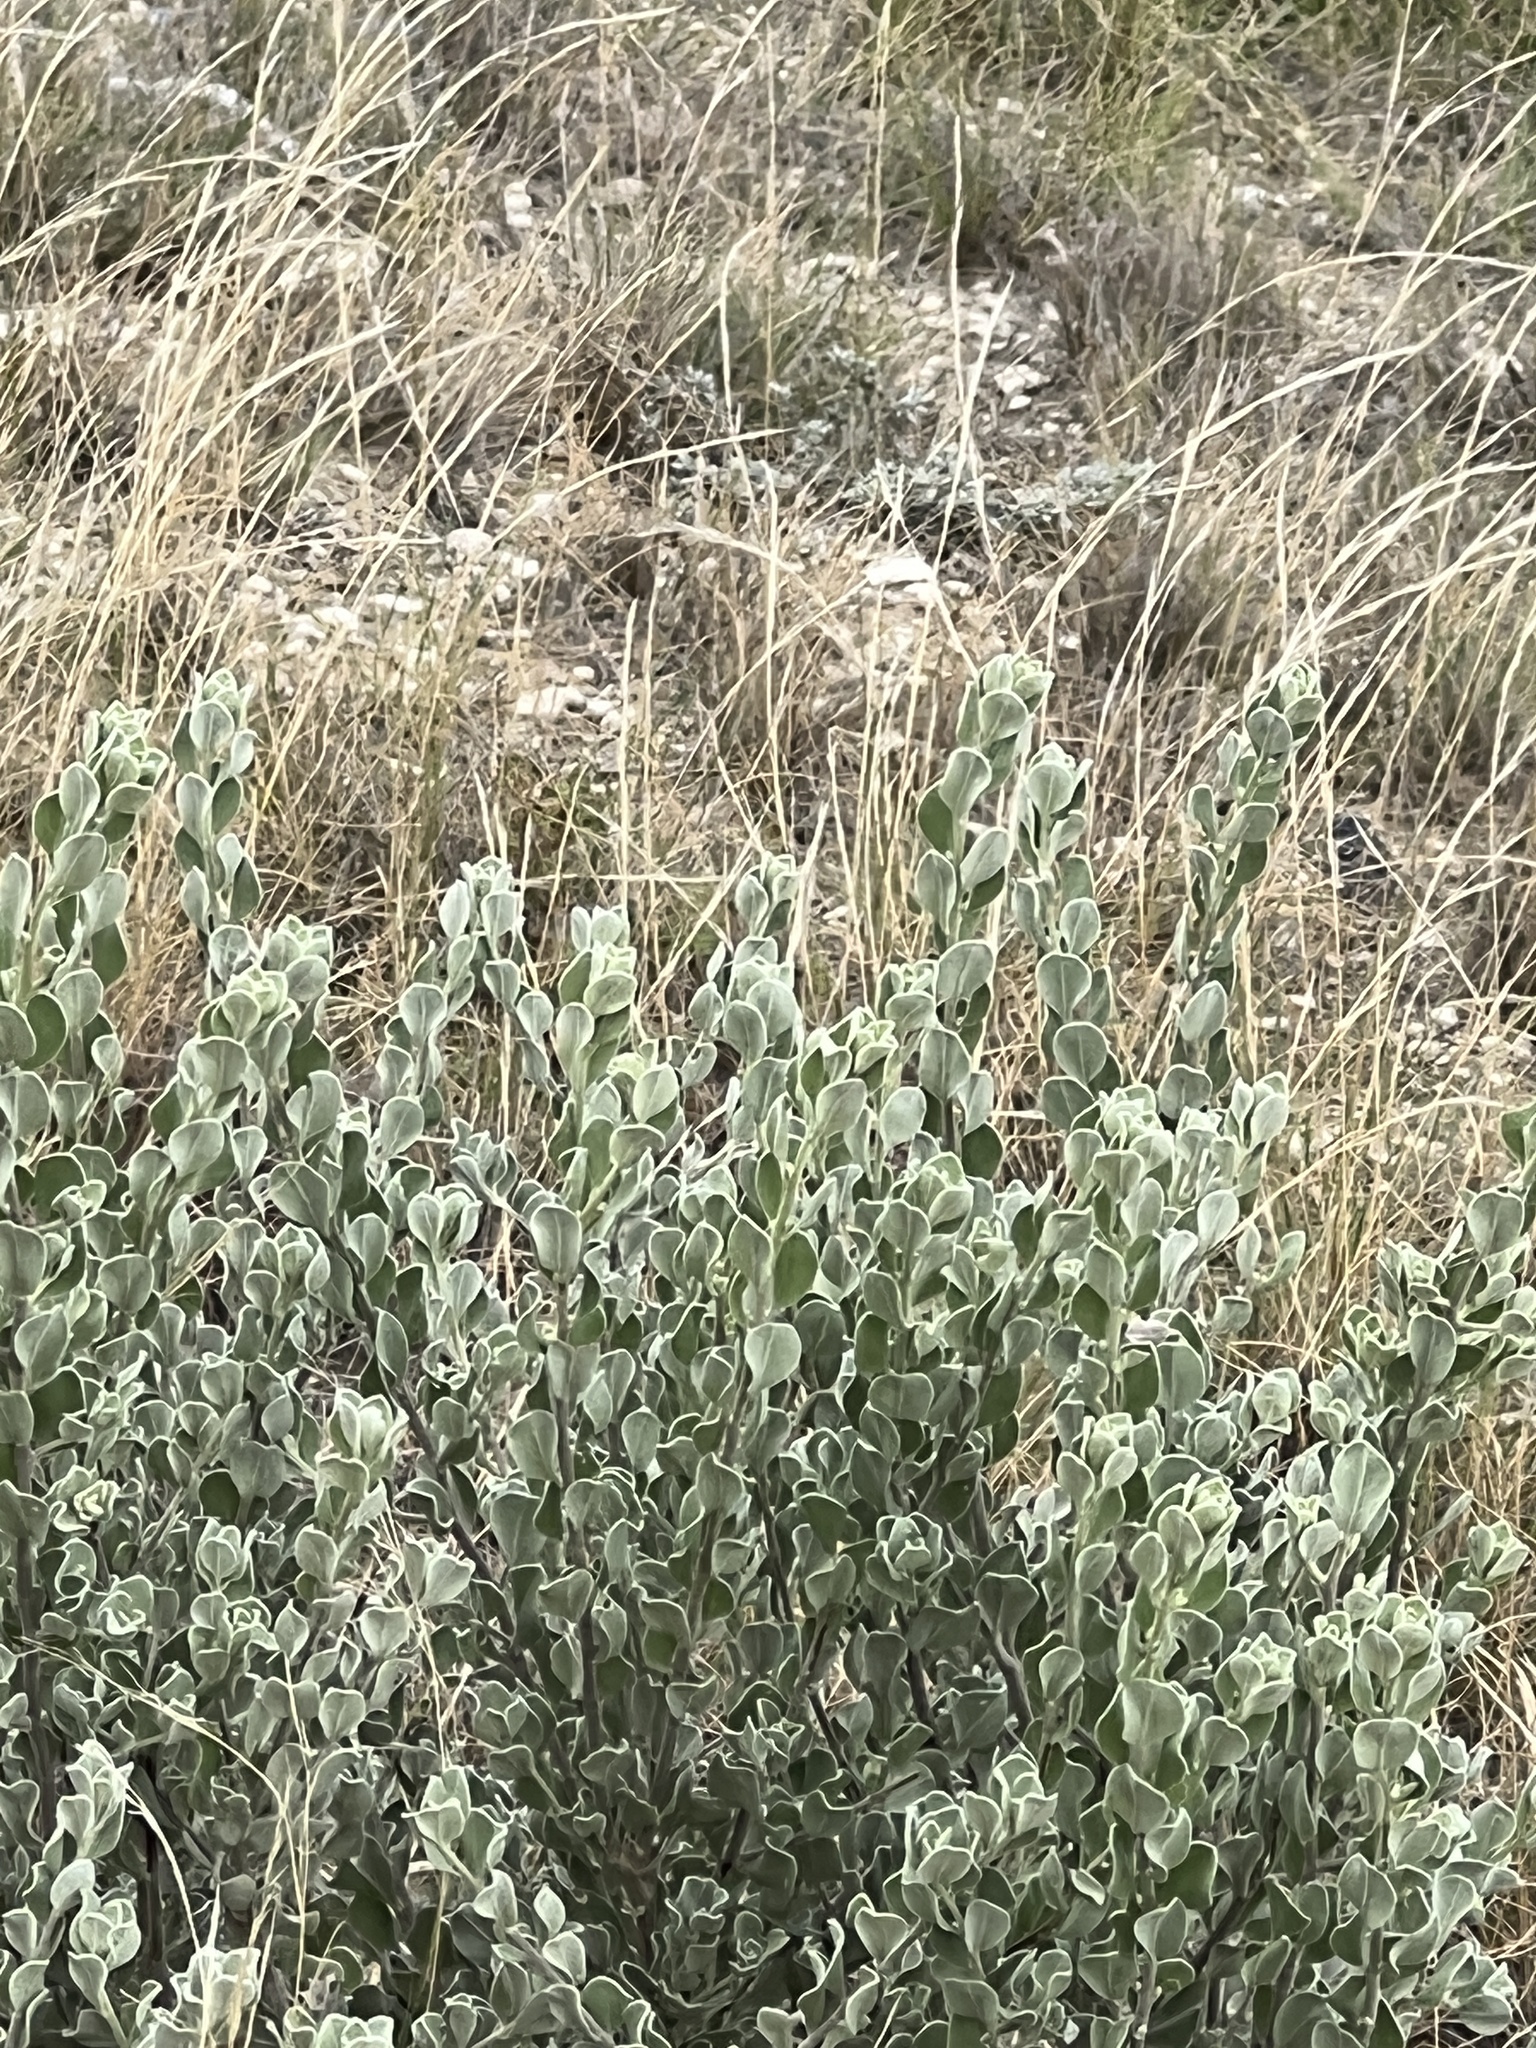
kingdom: Plantae
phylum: Tracheophyta
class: Magnoliopsida
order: Lamiales
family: Scrophulariaceae
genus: Leucophyllum
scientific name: Leucophyllum frutescens
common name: Texas silverleaf
